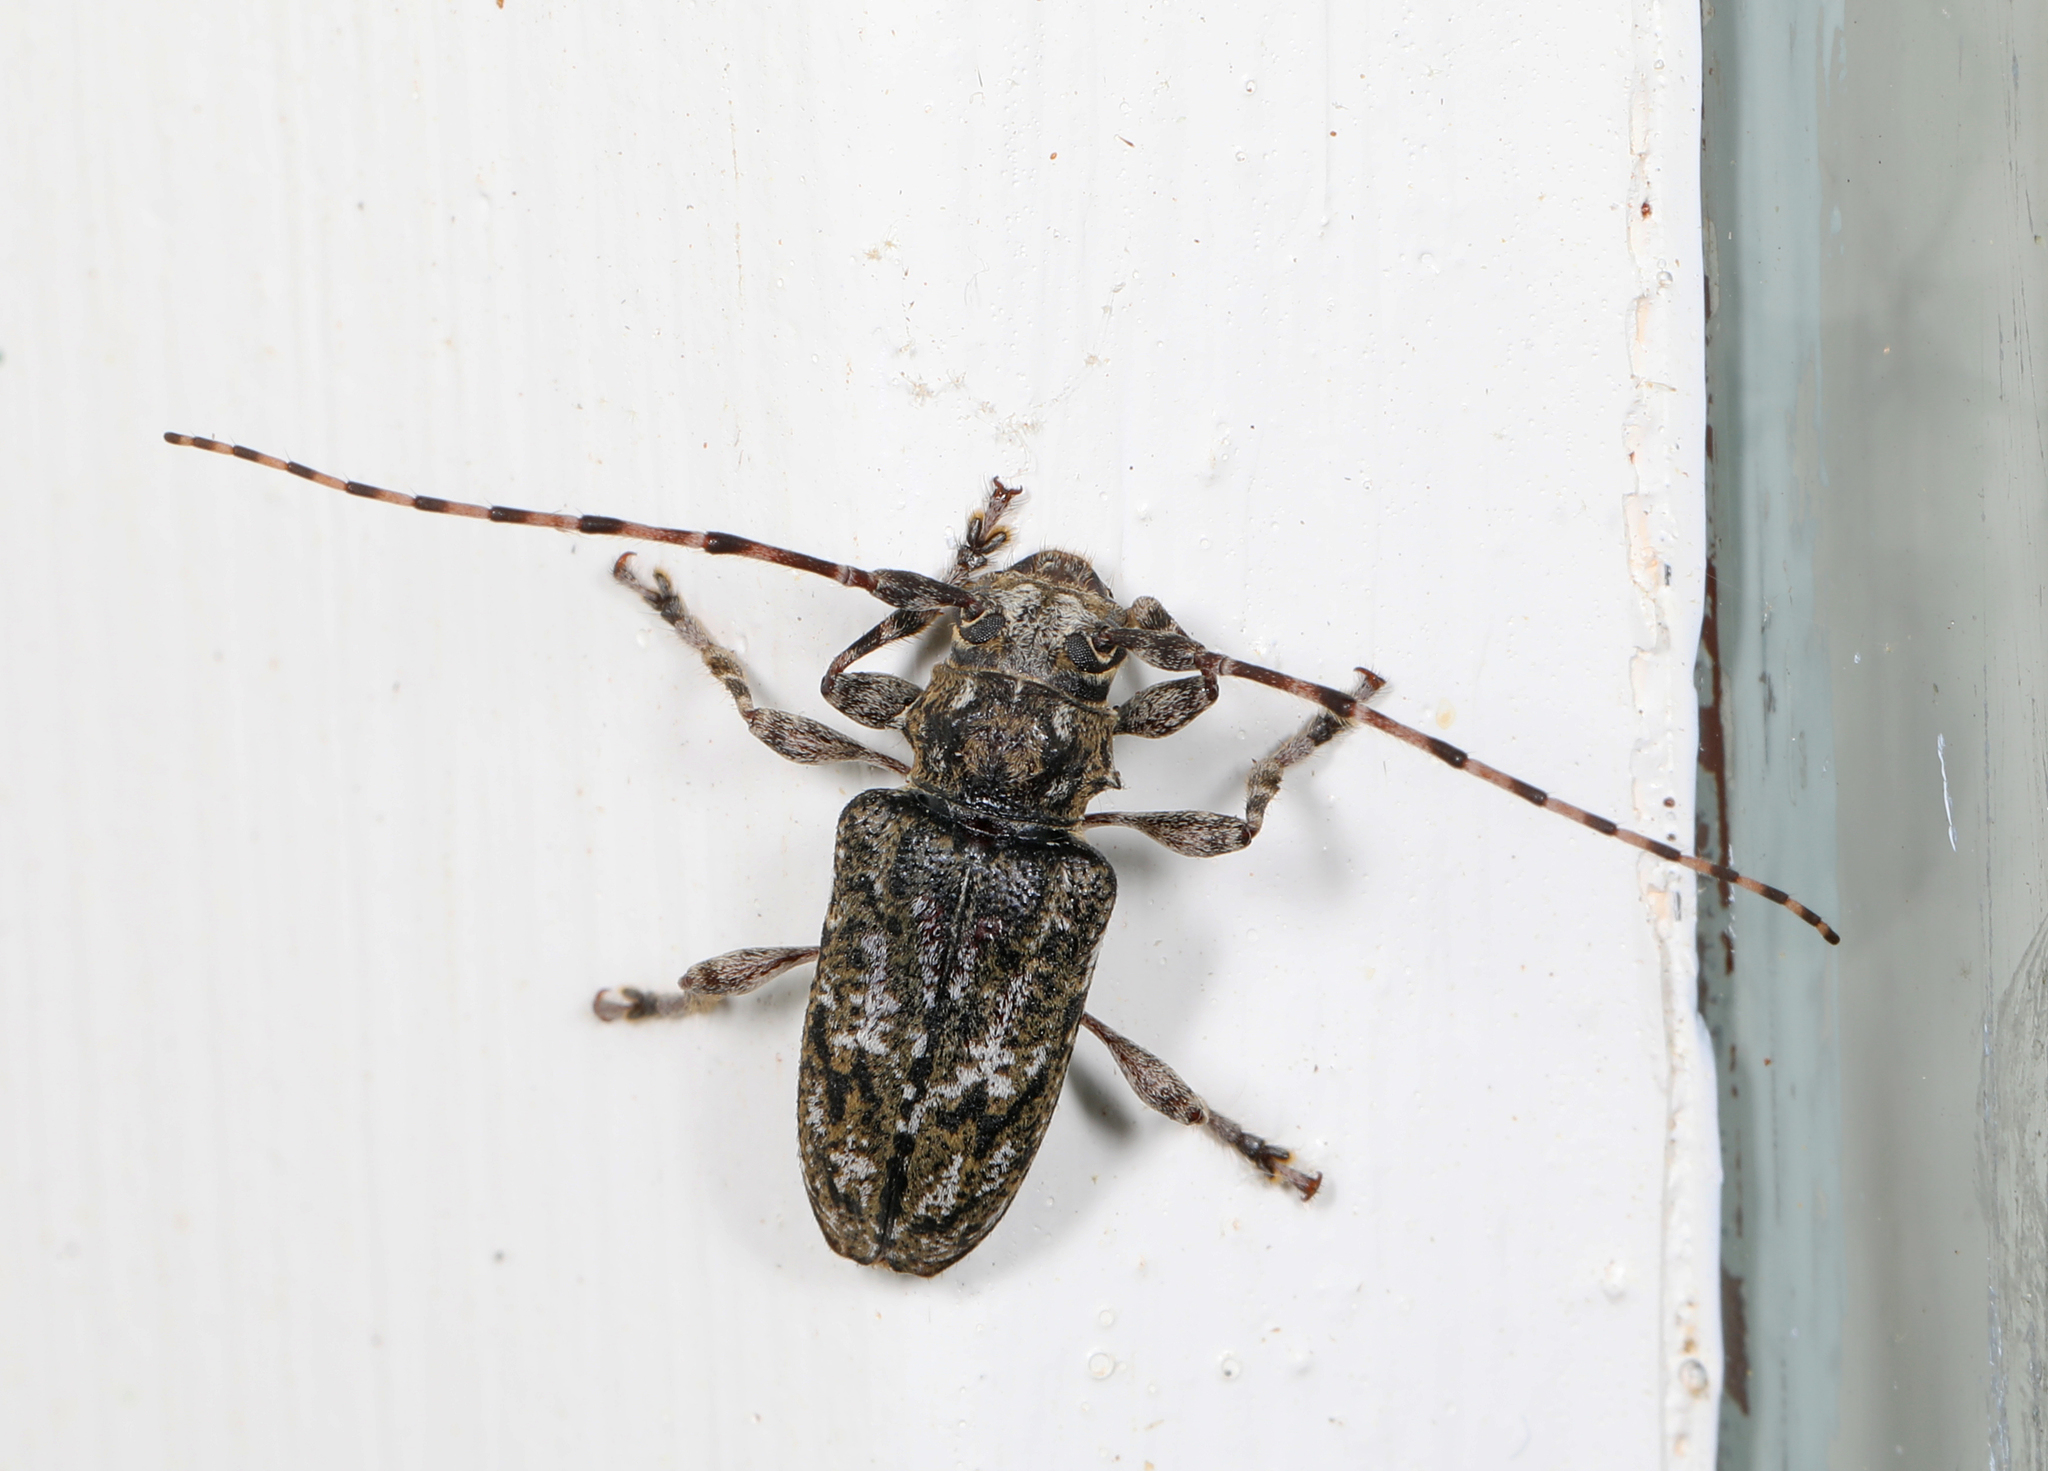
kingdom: Animalia
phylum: Arthropoda
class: Insecta
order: Coleoptera
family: Cerambycidae
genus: Aegomorphus
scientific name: Aegomorphus modestus
